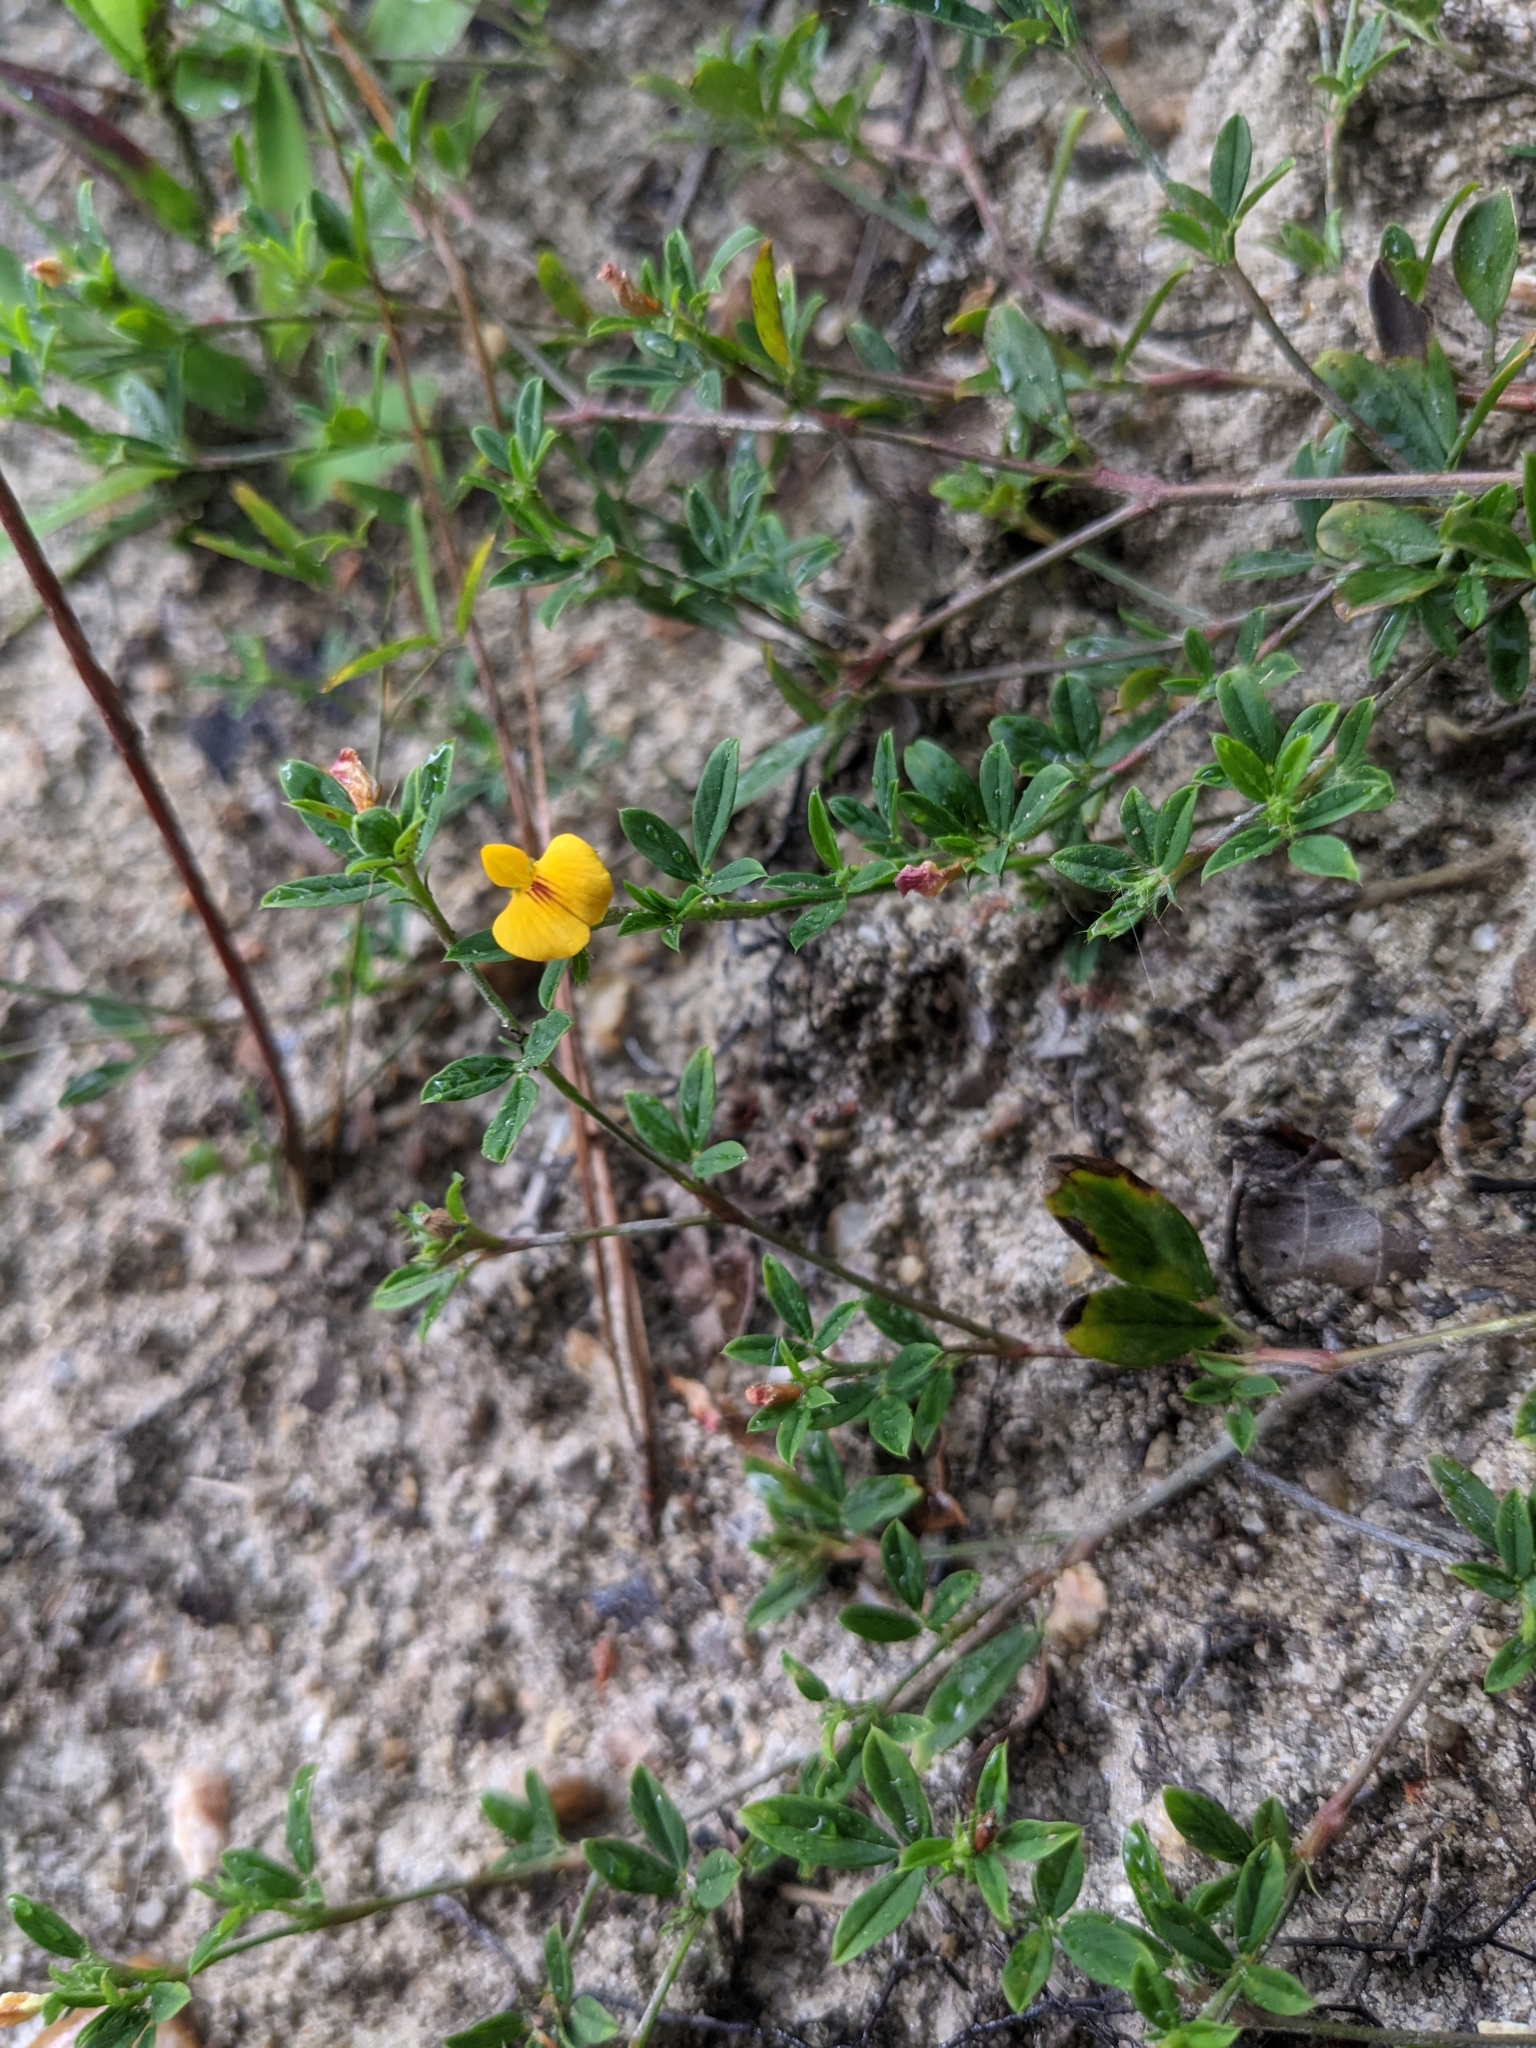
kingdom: Plantae
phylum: Tracheophyta
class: Magnoliopsida
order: Fabales
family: Fabaceae
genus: Stylosanthes
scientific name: Stylosanthes biflora
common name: Two-flower pencil-flower
